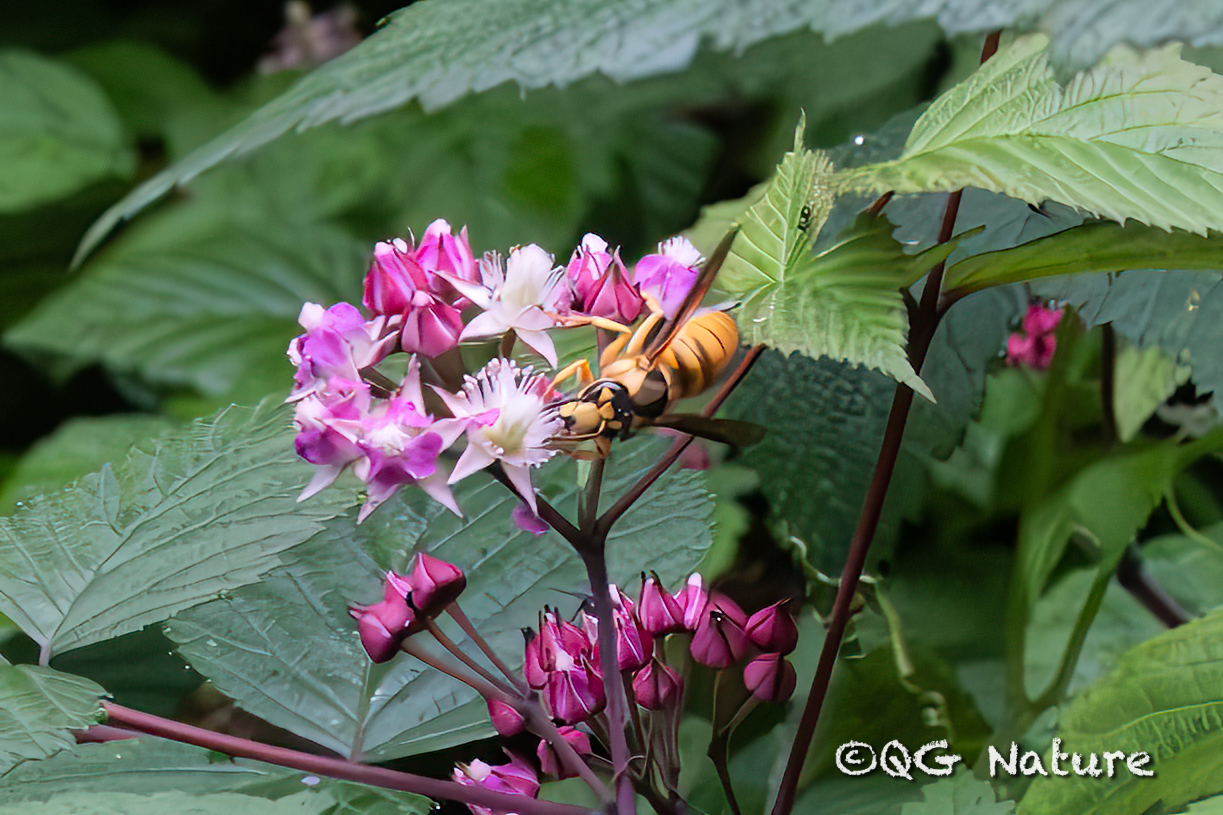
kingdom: Animalia
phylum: Arthropoda
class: Insecta
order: Hymenoptera
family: Vespidae
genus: Vespa
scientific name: Vespa bicolor
